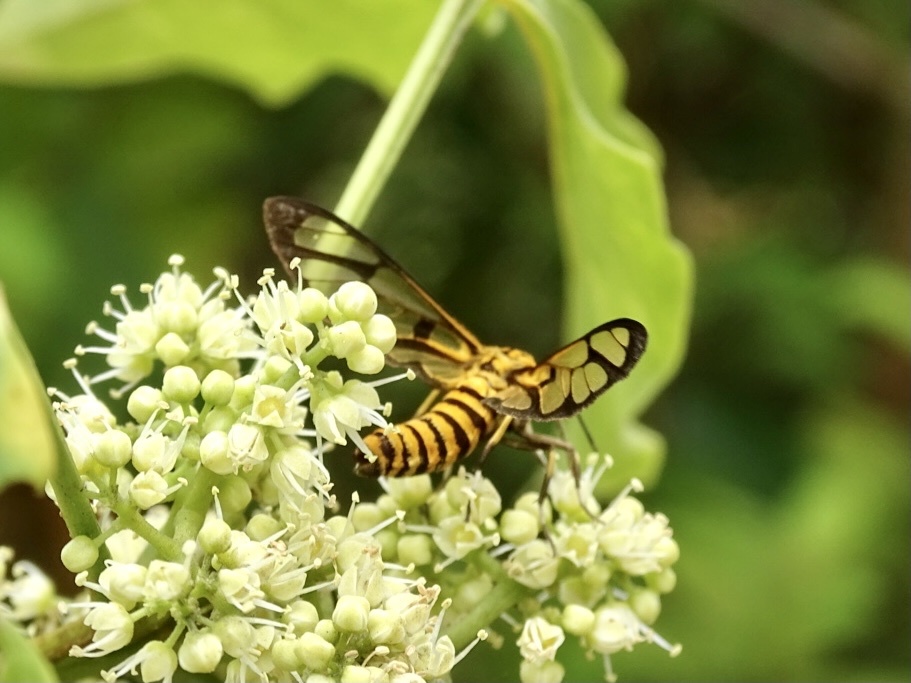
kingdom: Animalia
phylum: Arthropoda
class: Insecta
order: Lepidoptera
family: Erebidae
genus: Amata
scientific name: Amata grotei
